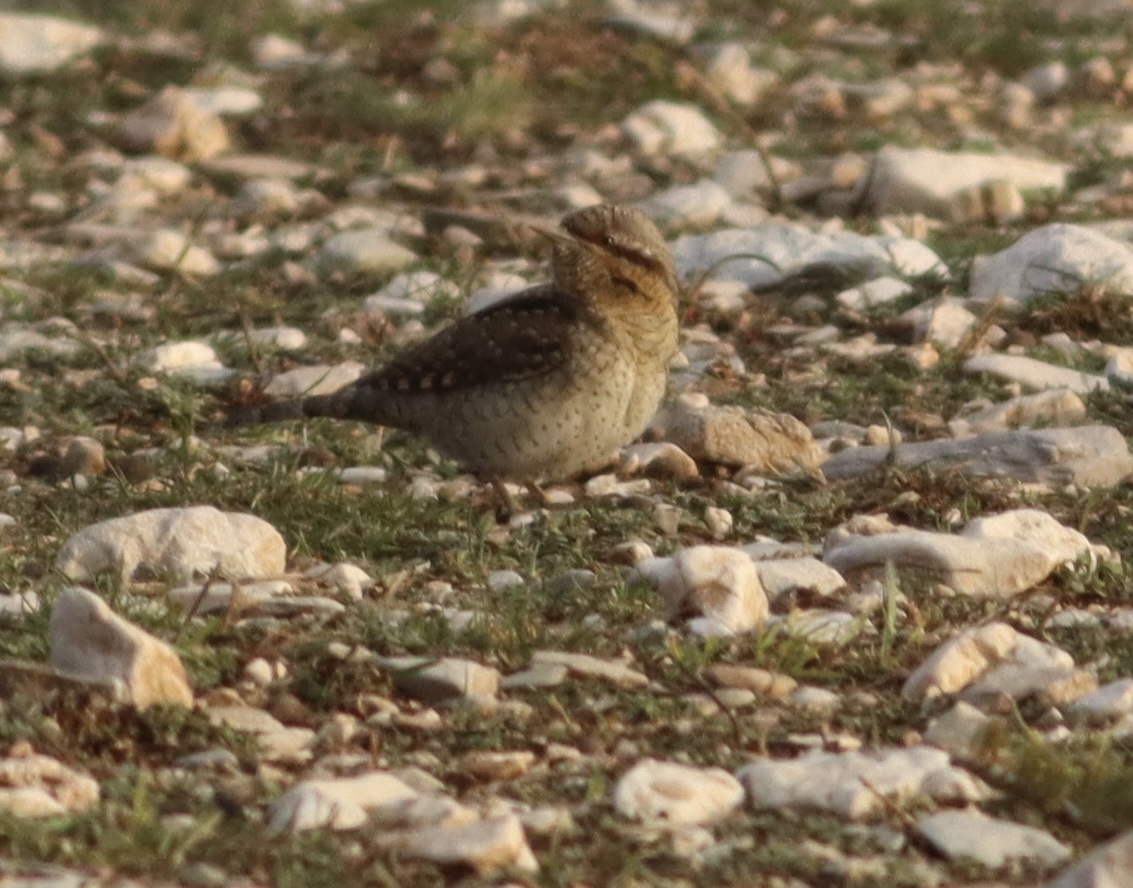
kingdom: Animalia
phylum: Chordata
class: Aves
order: Piciformes
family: Picidae
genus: Jynx
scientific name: Jynx torquilla
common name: Eurasian wryneck
